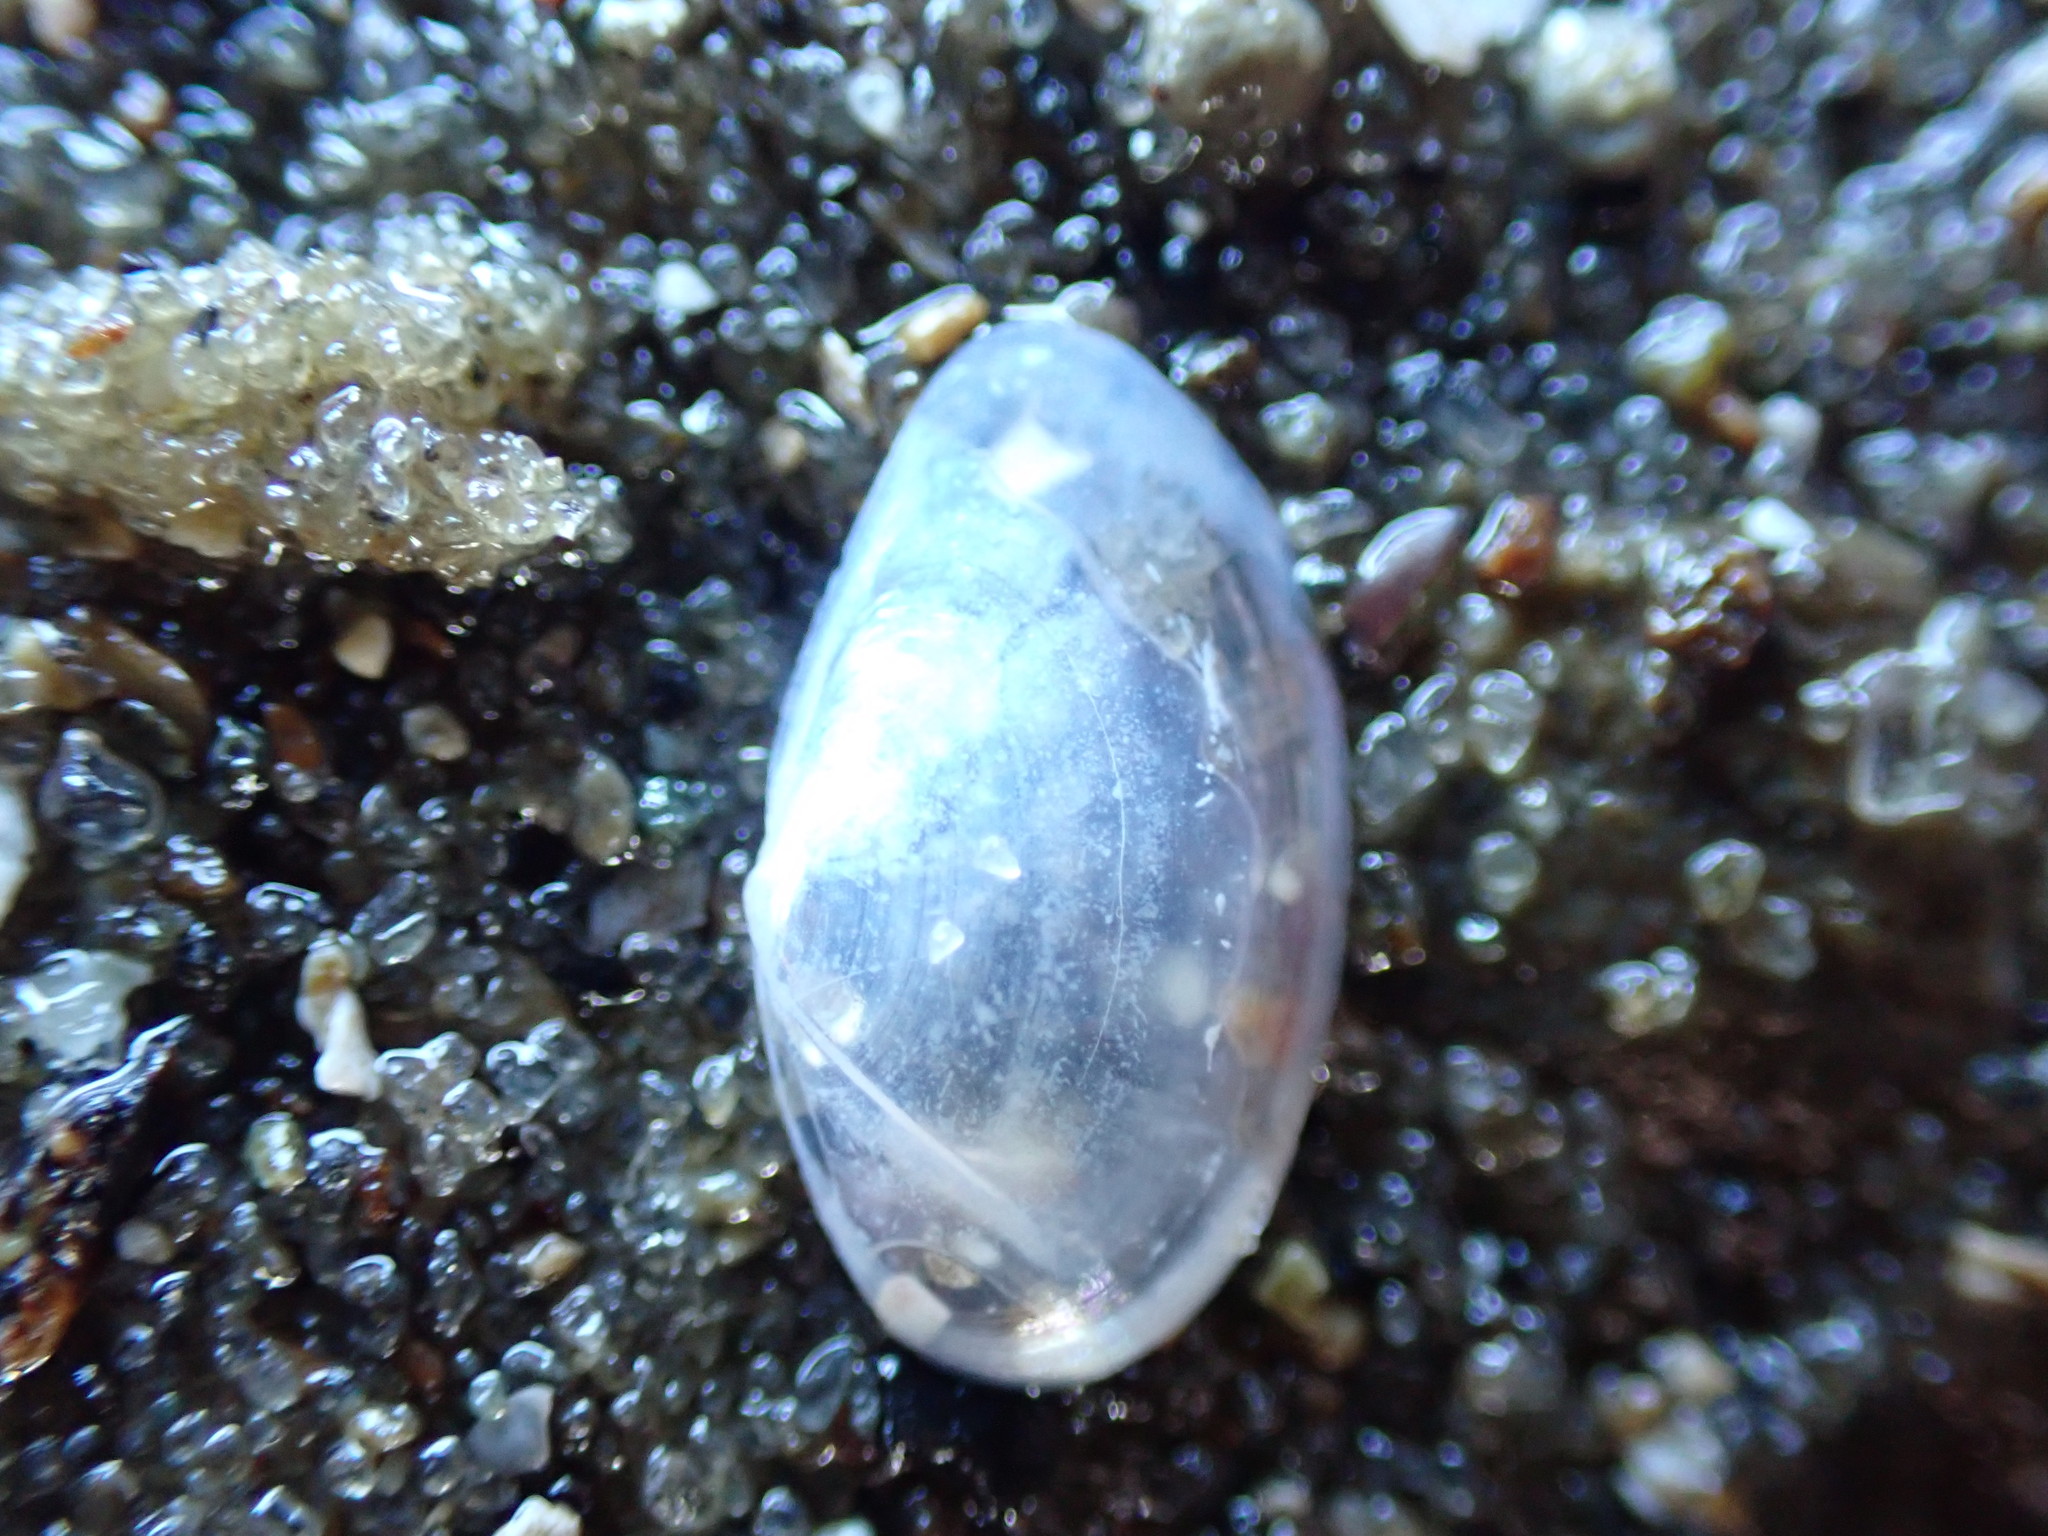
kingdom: Animalia
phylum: Mollusca
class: Bivalvia
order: Cardiida
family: Semelidae
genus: Theora
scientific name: Theora lubrica
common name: Asian semele
